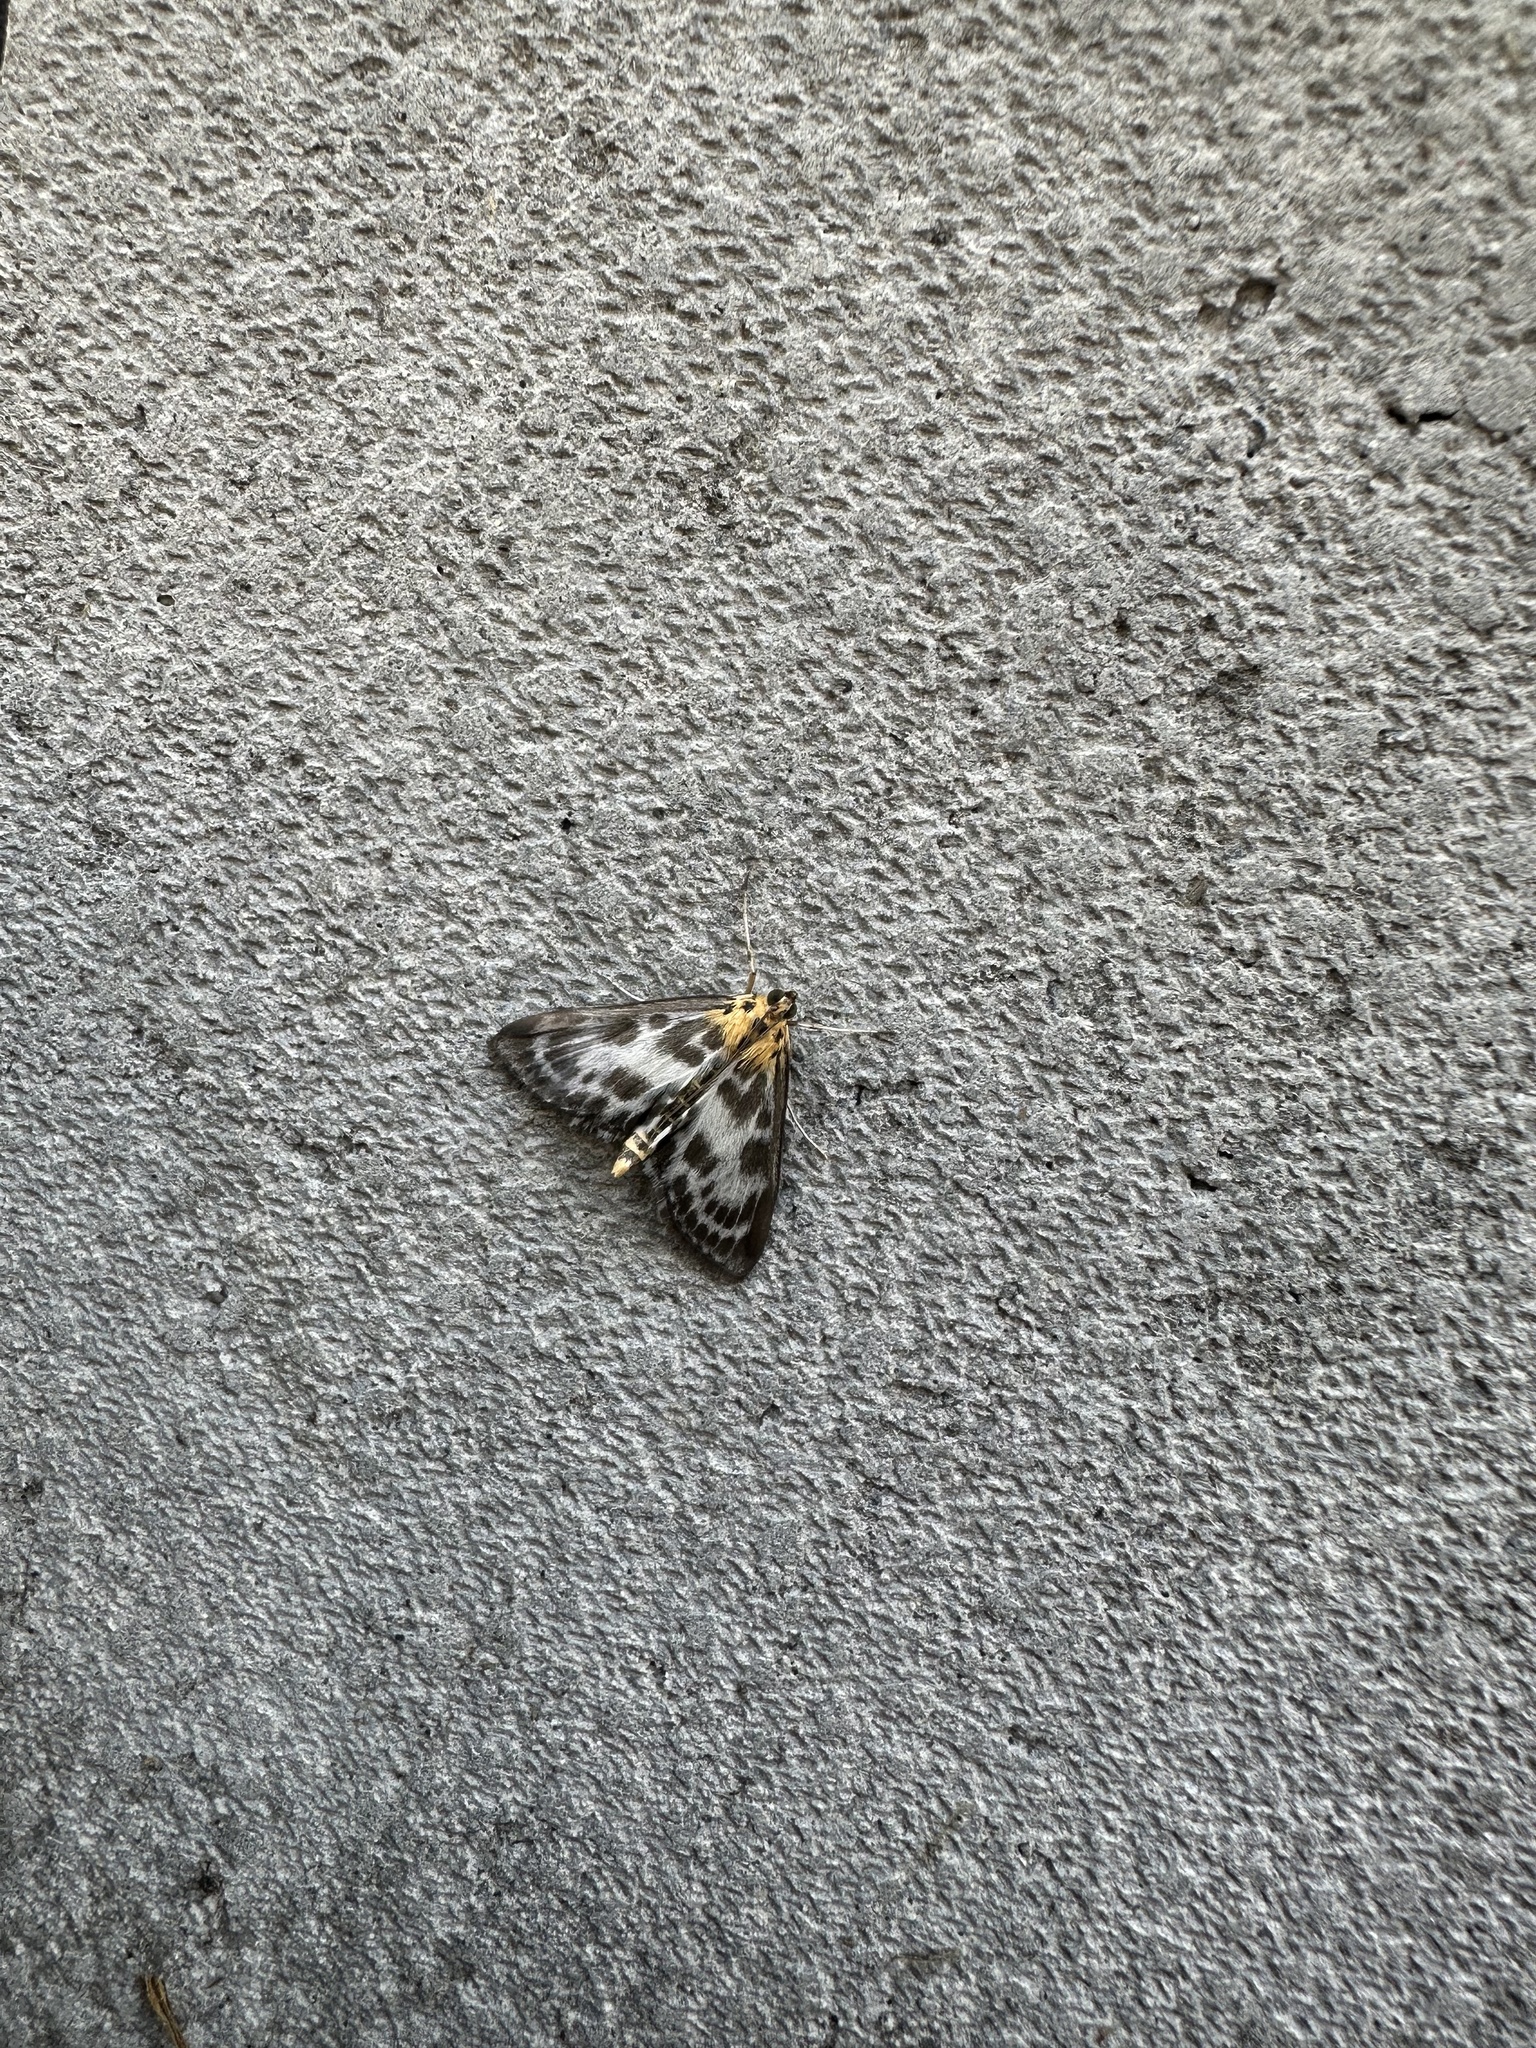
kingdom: Animalia
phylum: Arthropoda
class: Insecta
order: Lepidoptera
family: Crambidae
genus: Anania
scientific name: Anania hortulata
